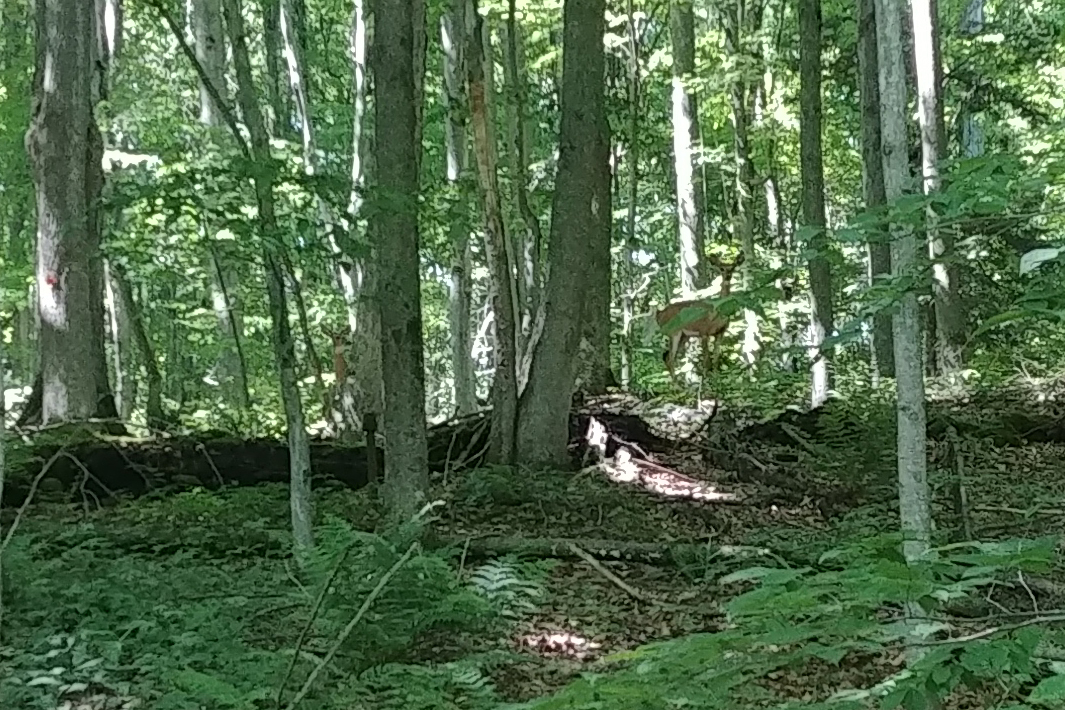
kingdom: Animalia
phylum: Chordata
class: Mammalia
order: Artiodactyla
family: Cervidae
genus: Odocoileus
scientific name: Odocoileus virginianus
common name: White-tailed deer
